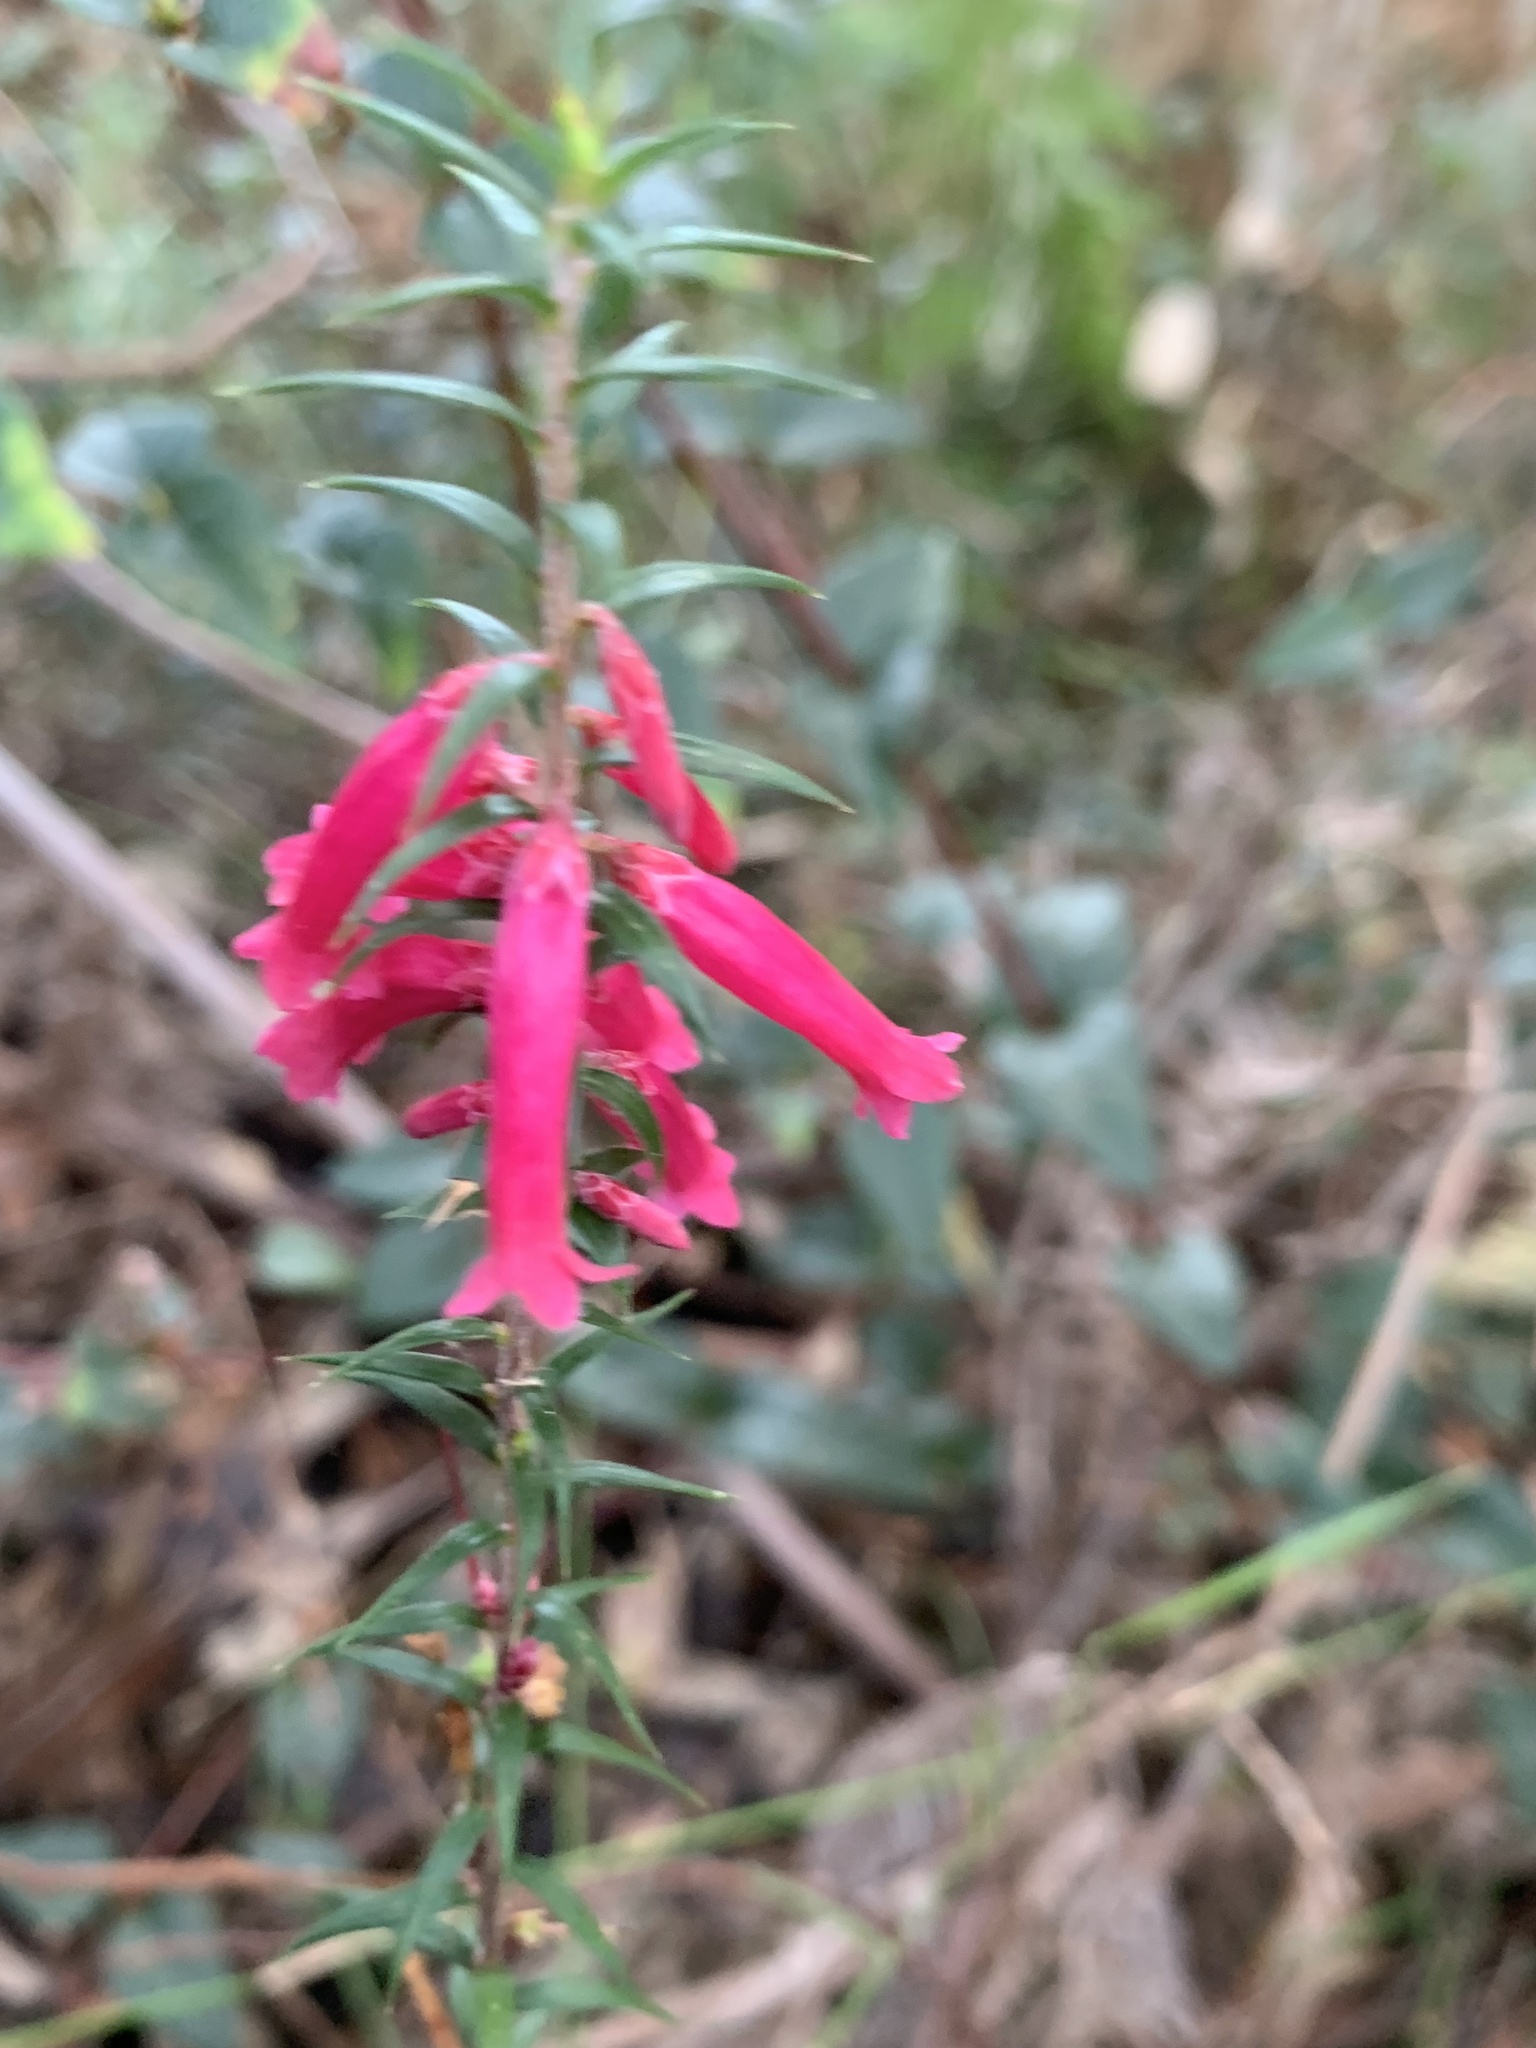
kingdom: Plantae
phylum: Tracheophyta
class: Magnoliopsida
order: Ericales
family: Ericaceae
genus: Epacris
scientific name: Epacris impressa
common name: Common-heath
